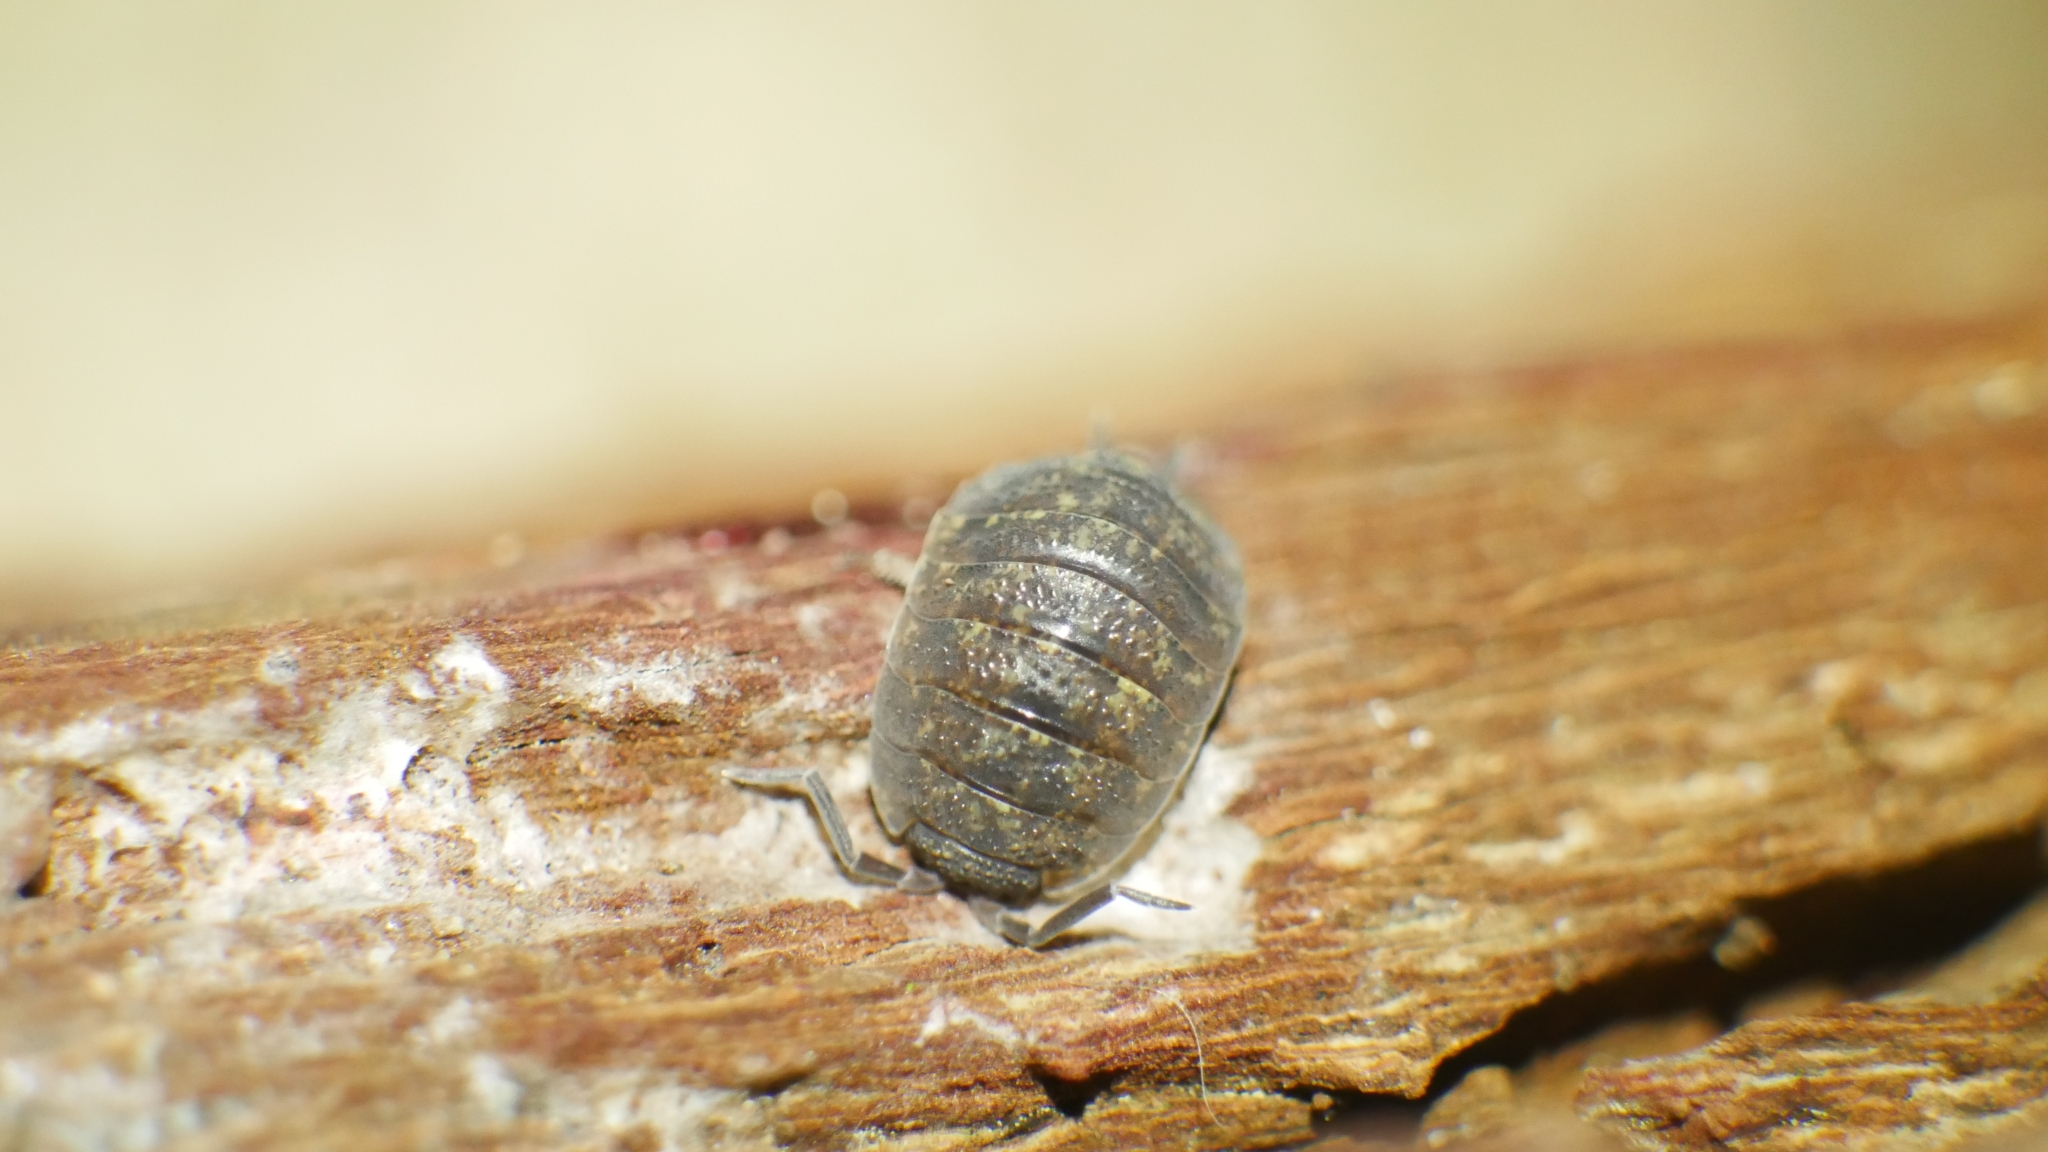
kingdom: Animalia
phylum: Arthropoda
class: Malacostraca
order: Isopoda
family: Porcellionidae
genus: Porcellio
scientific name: Porcellio scaber
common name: Common rough woodlouse
